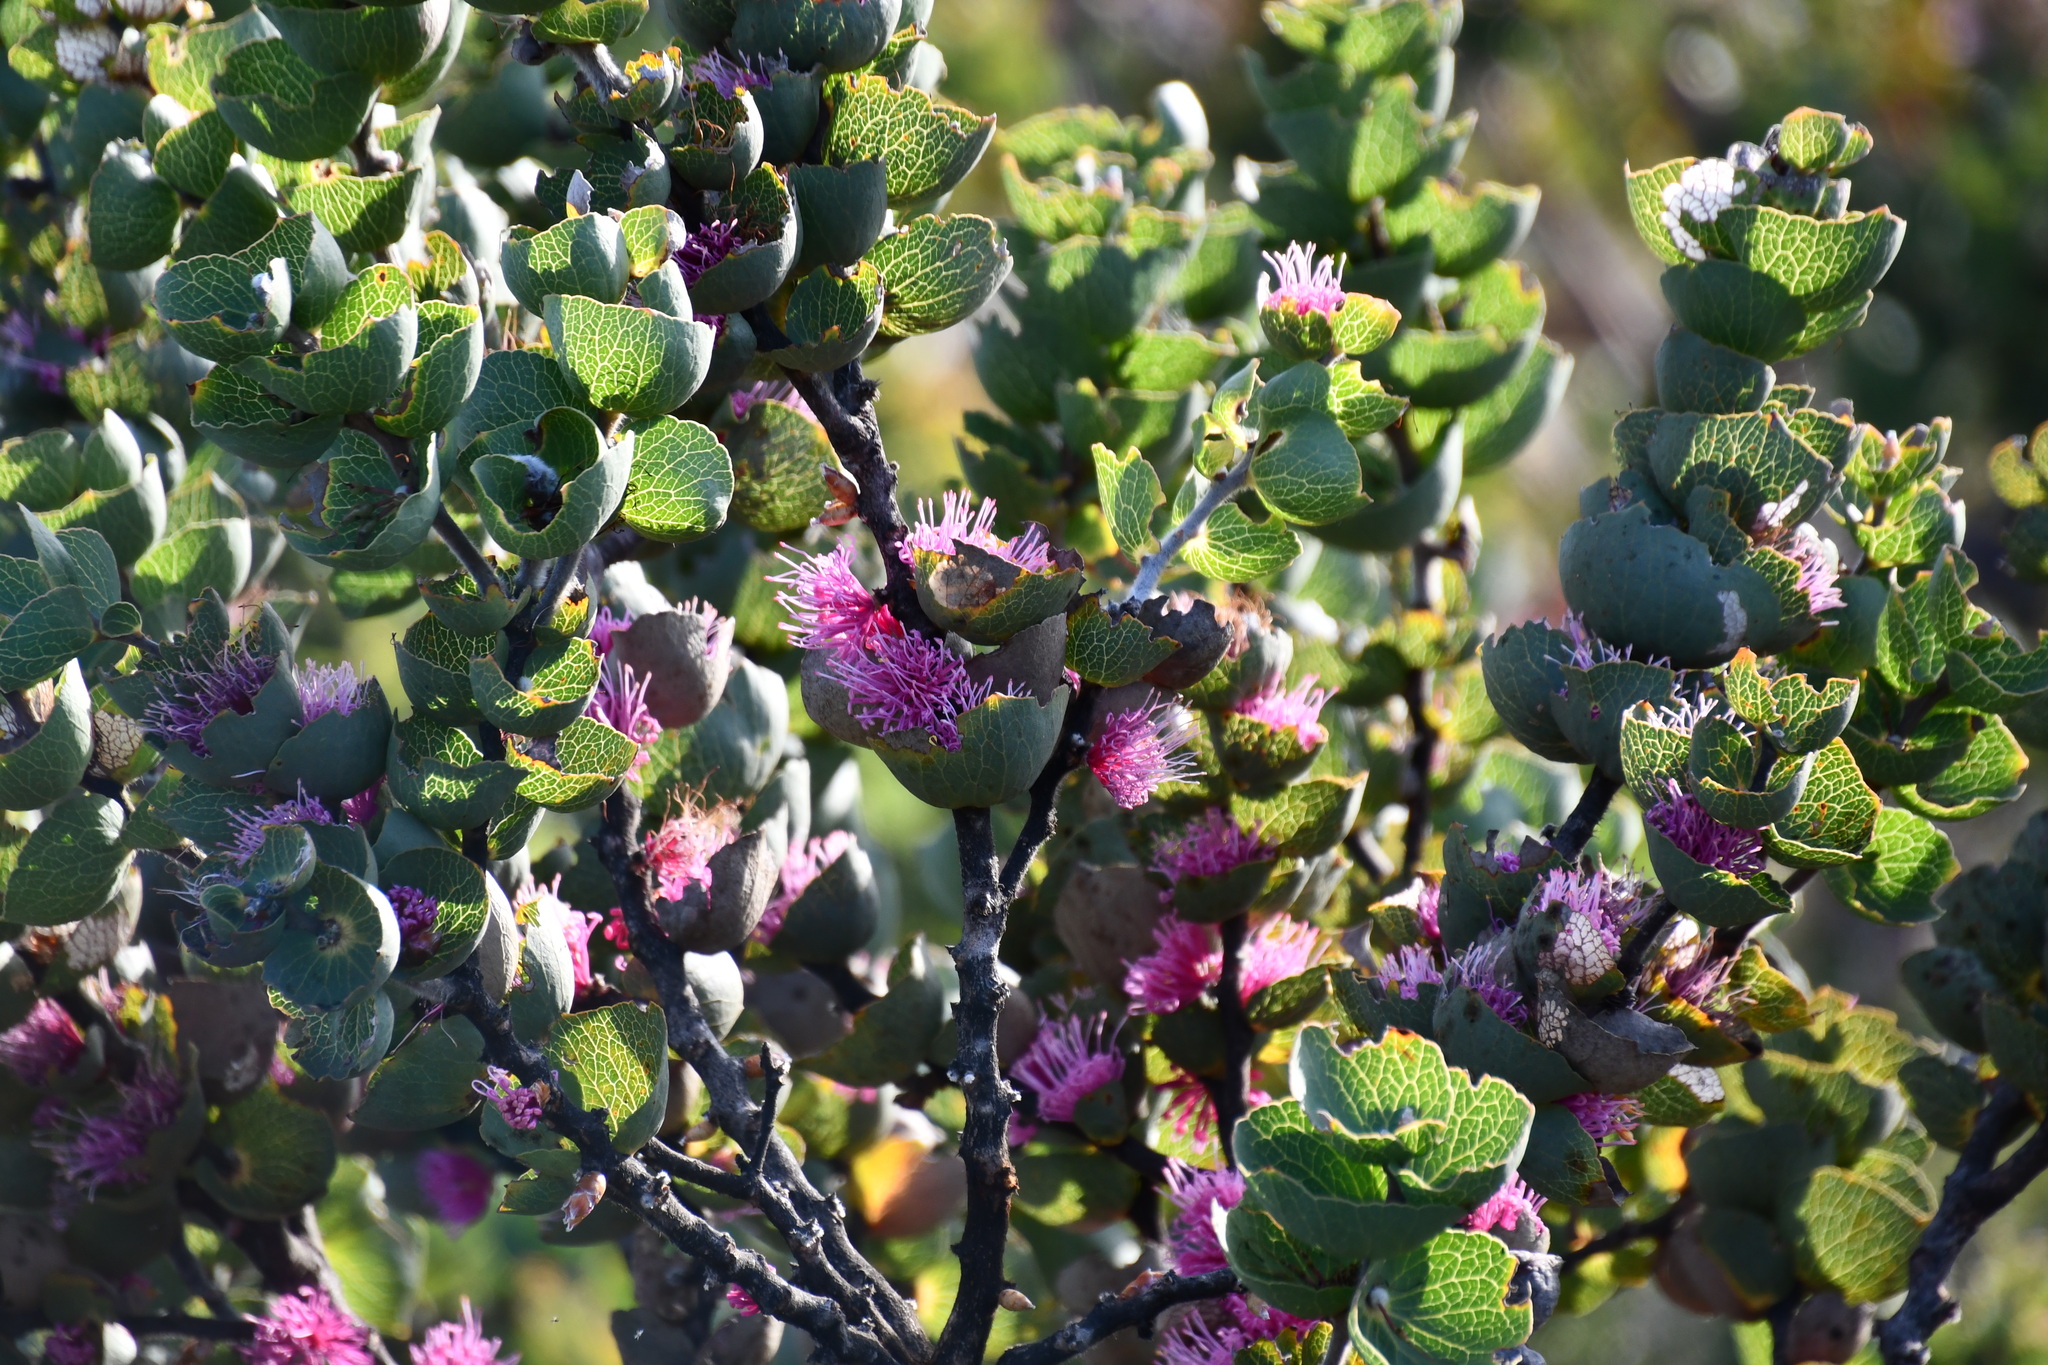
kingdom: Plantae
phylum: Tracheophyta
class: Magnoliopsida
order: Proteales
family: Proteaceae
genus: Hakea
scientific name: Hakea cucullata
